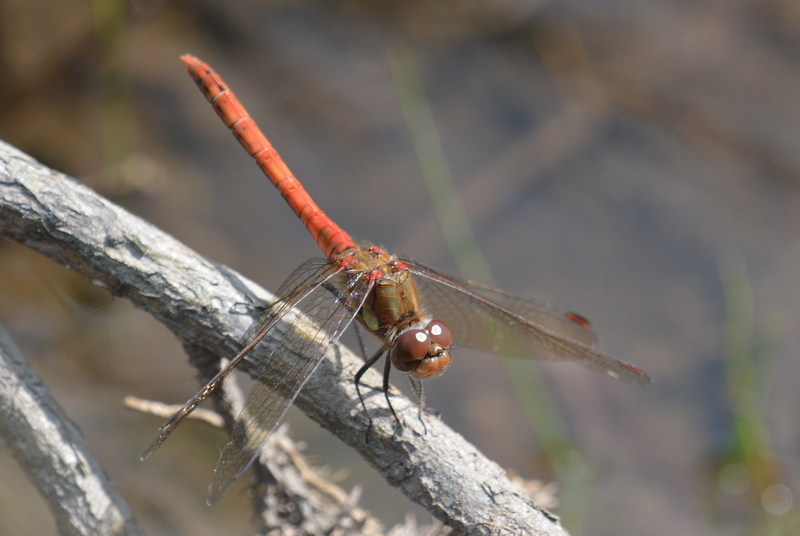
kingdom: Animalia
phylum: Arthropoda
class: Insecta
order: Odonata
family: Libellulidae
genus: Sympetrum
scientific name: Sympetrum striolatum
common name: Common darter
